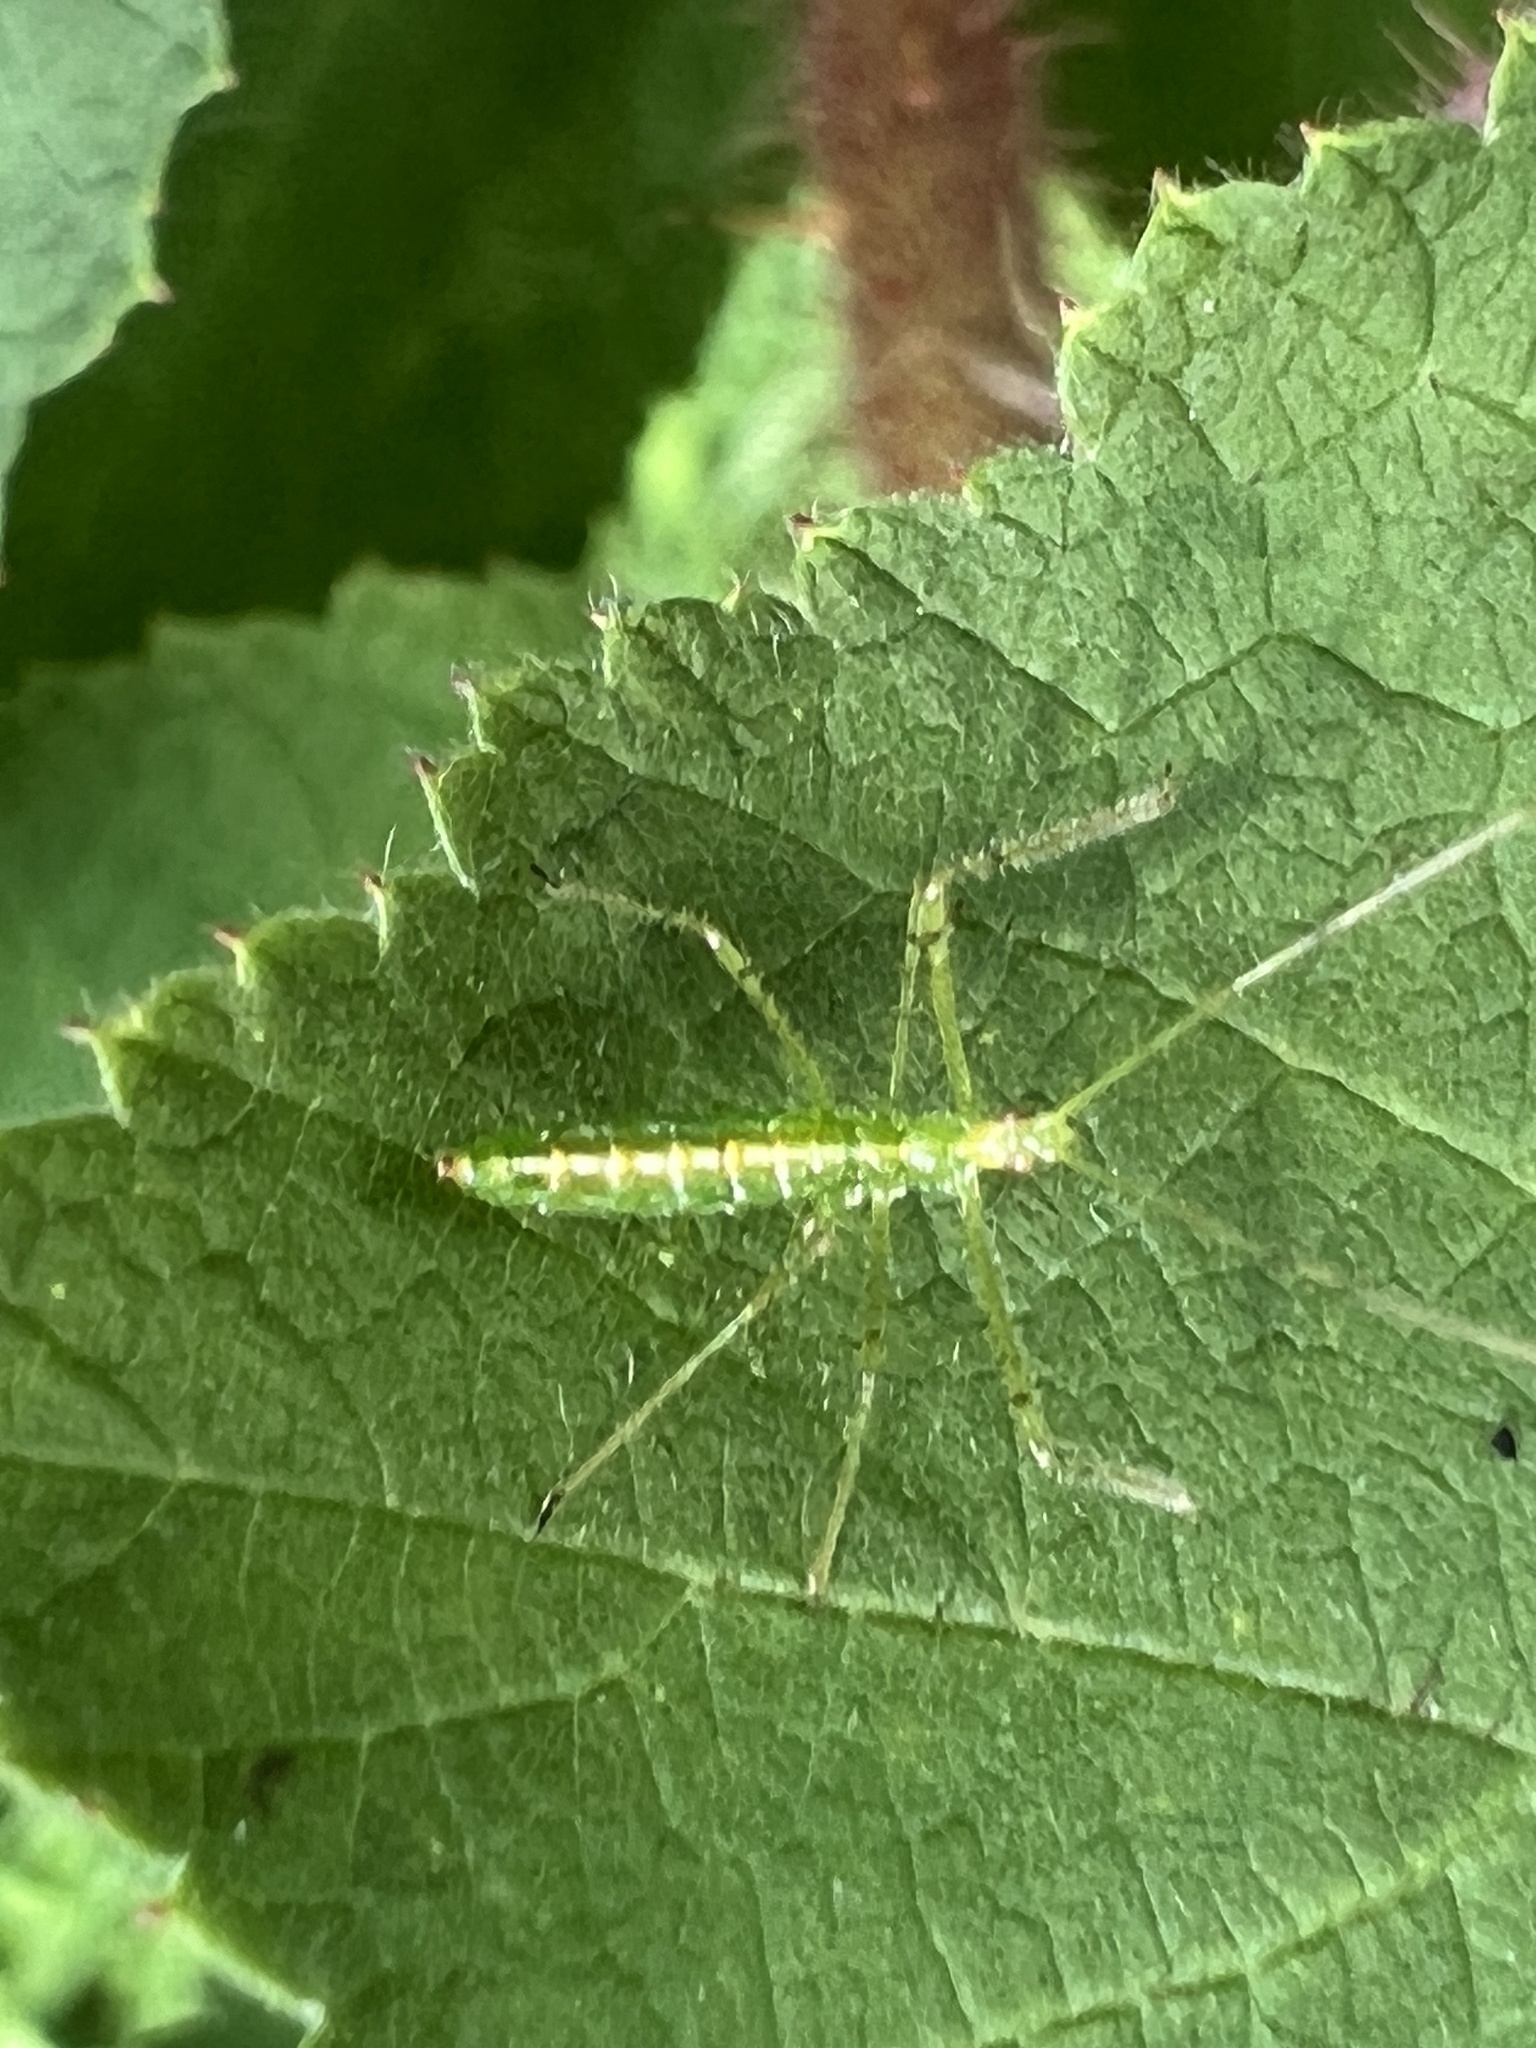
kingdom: Animalia
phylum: Arthropoda
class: Insecta
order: Hemiptera
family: Reduviidae
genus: Zelus
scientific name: Zelus luridus
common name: Pale green assassin bug
